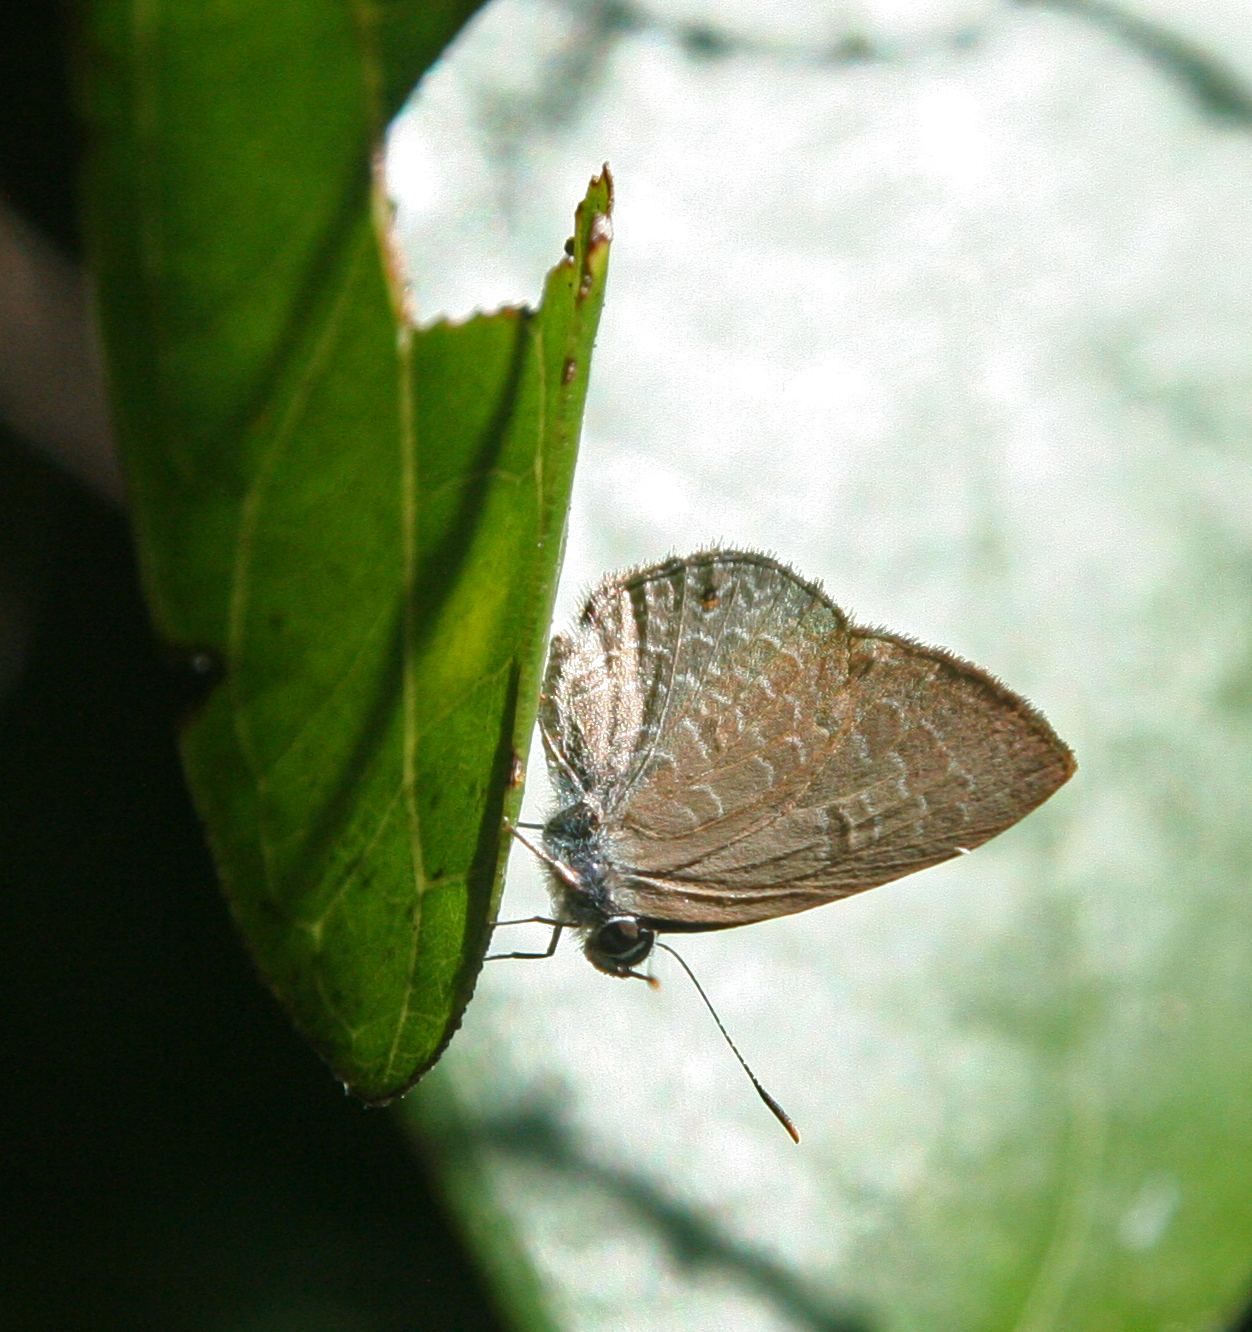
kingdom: Animalia
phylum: Arthropoda
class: Insecta
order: Lepidoptera
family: Lycaenidae
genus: Anthene
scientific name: Anthene emolus
